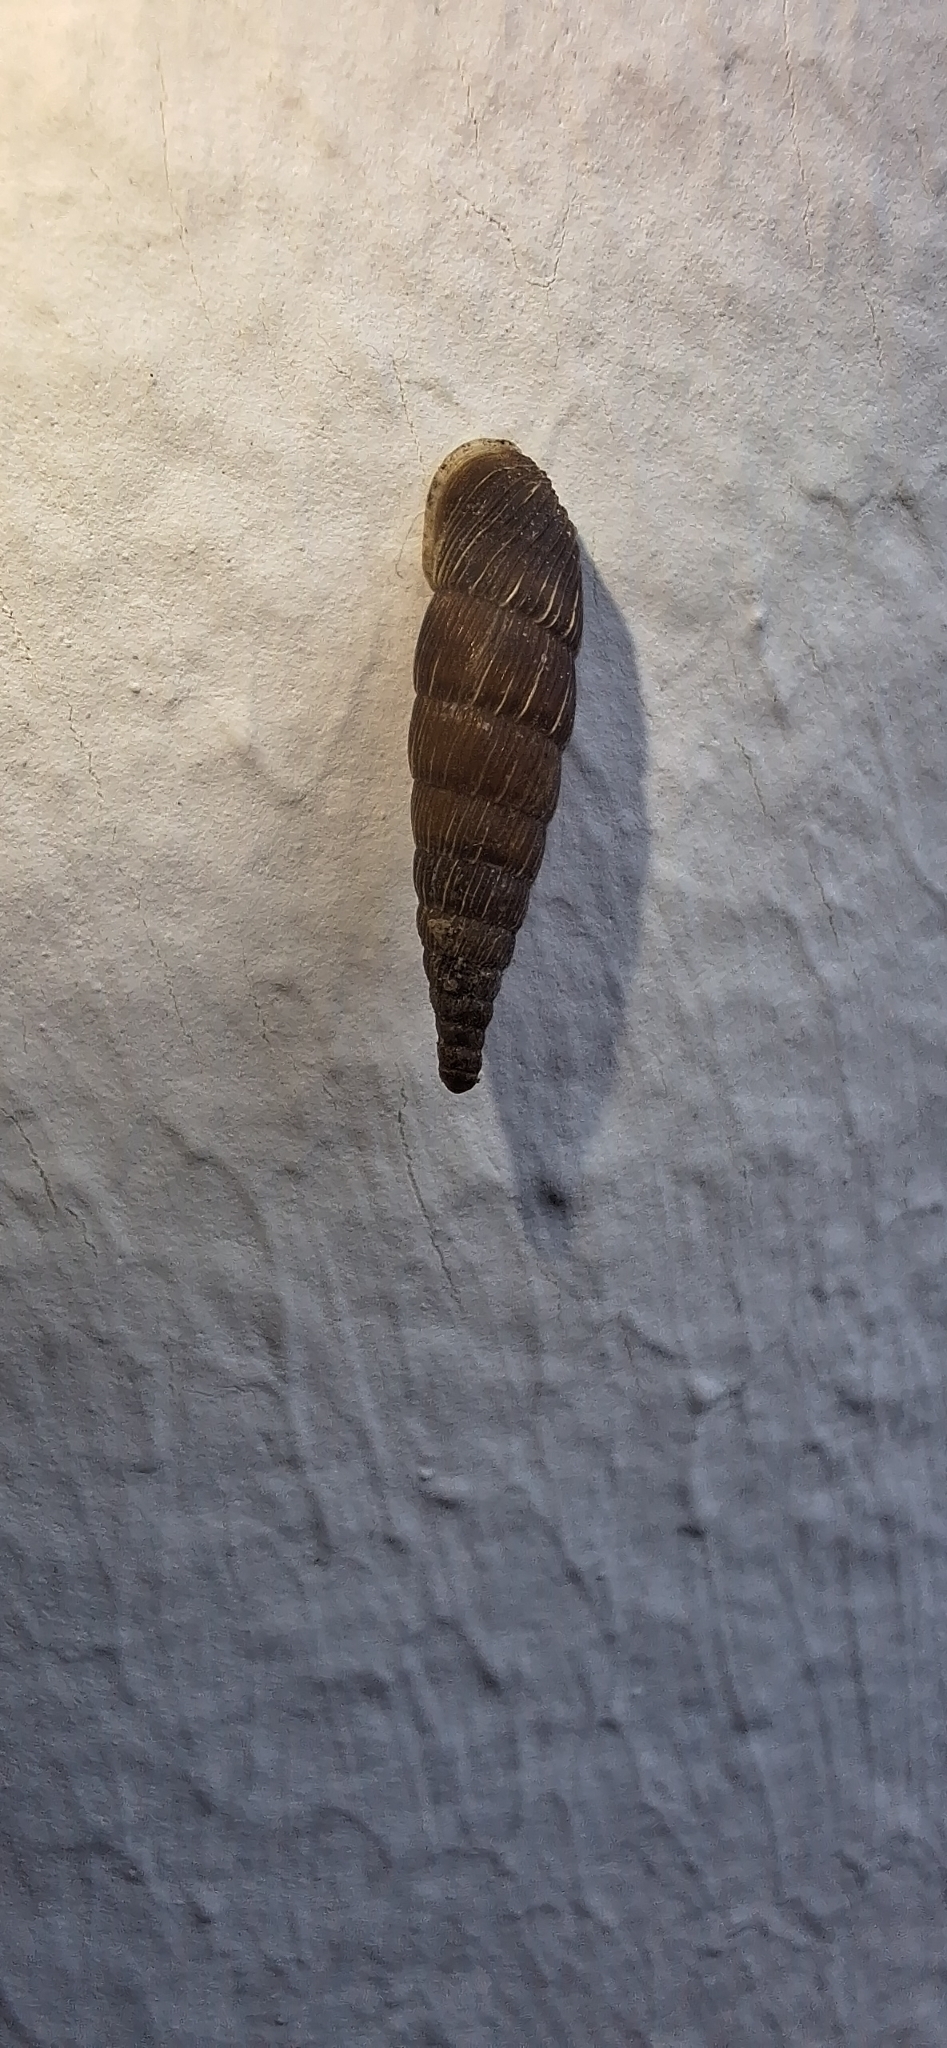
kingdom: Animalia
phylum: Mollusca
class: Gastropoda
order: Stylommatophora
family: Clausiliidae
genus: Alinda
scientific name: Alinda biplicata
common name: Thames door snail
